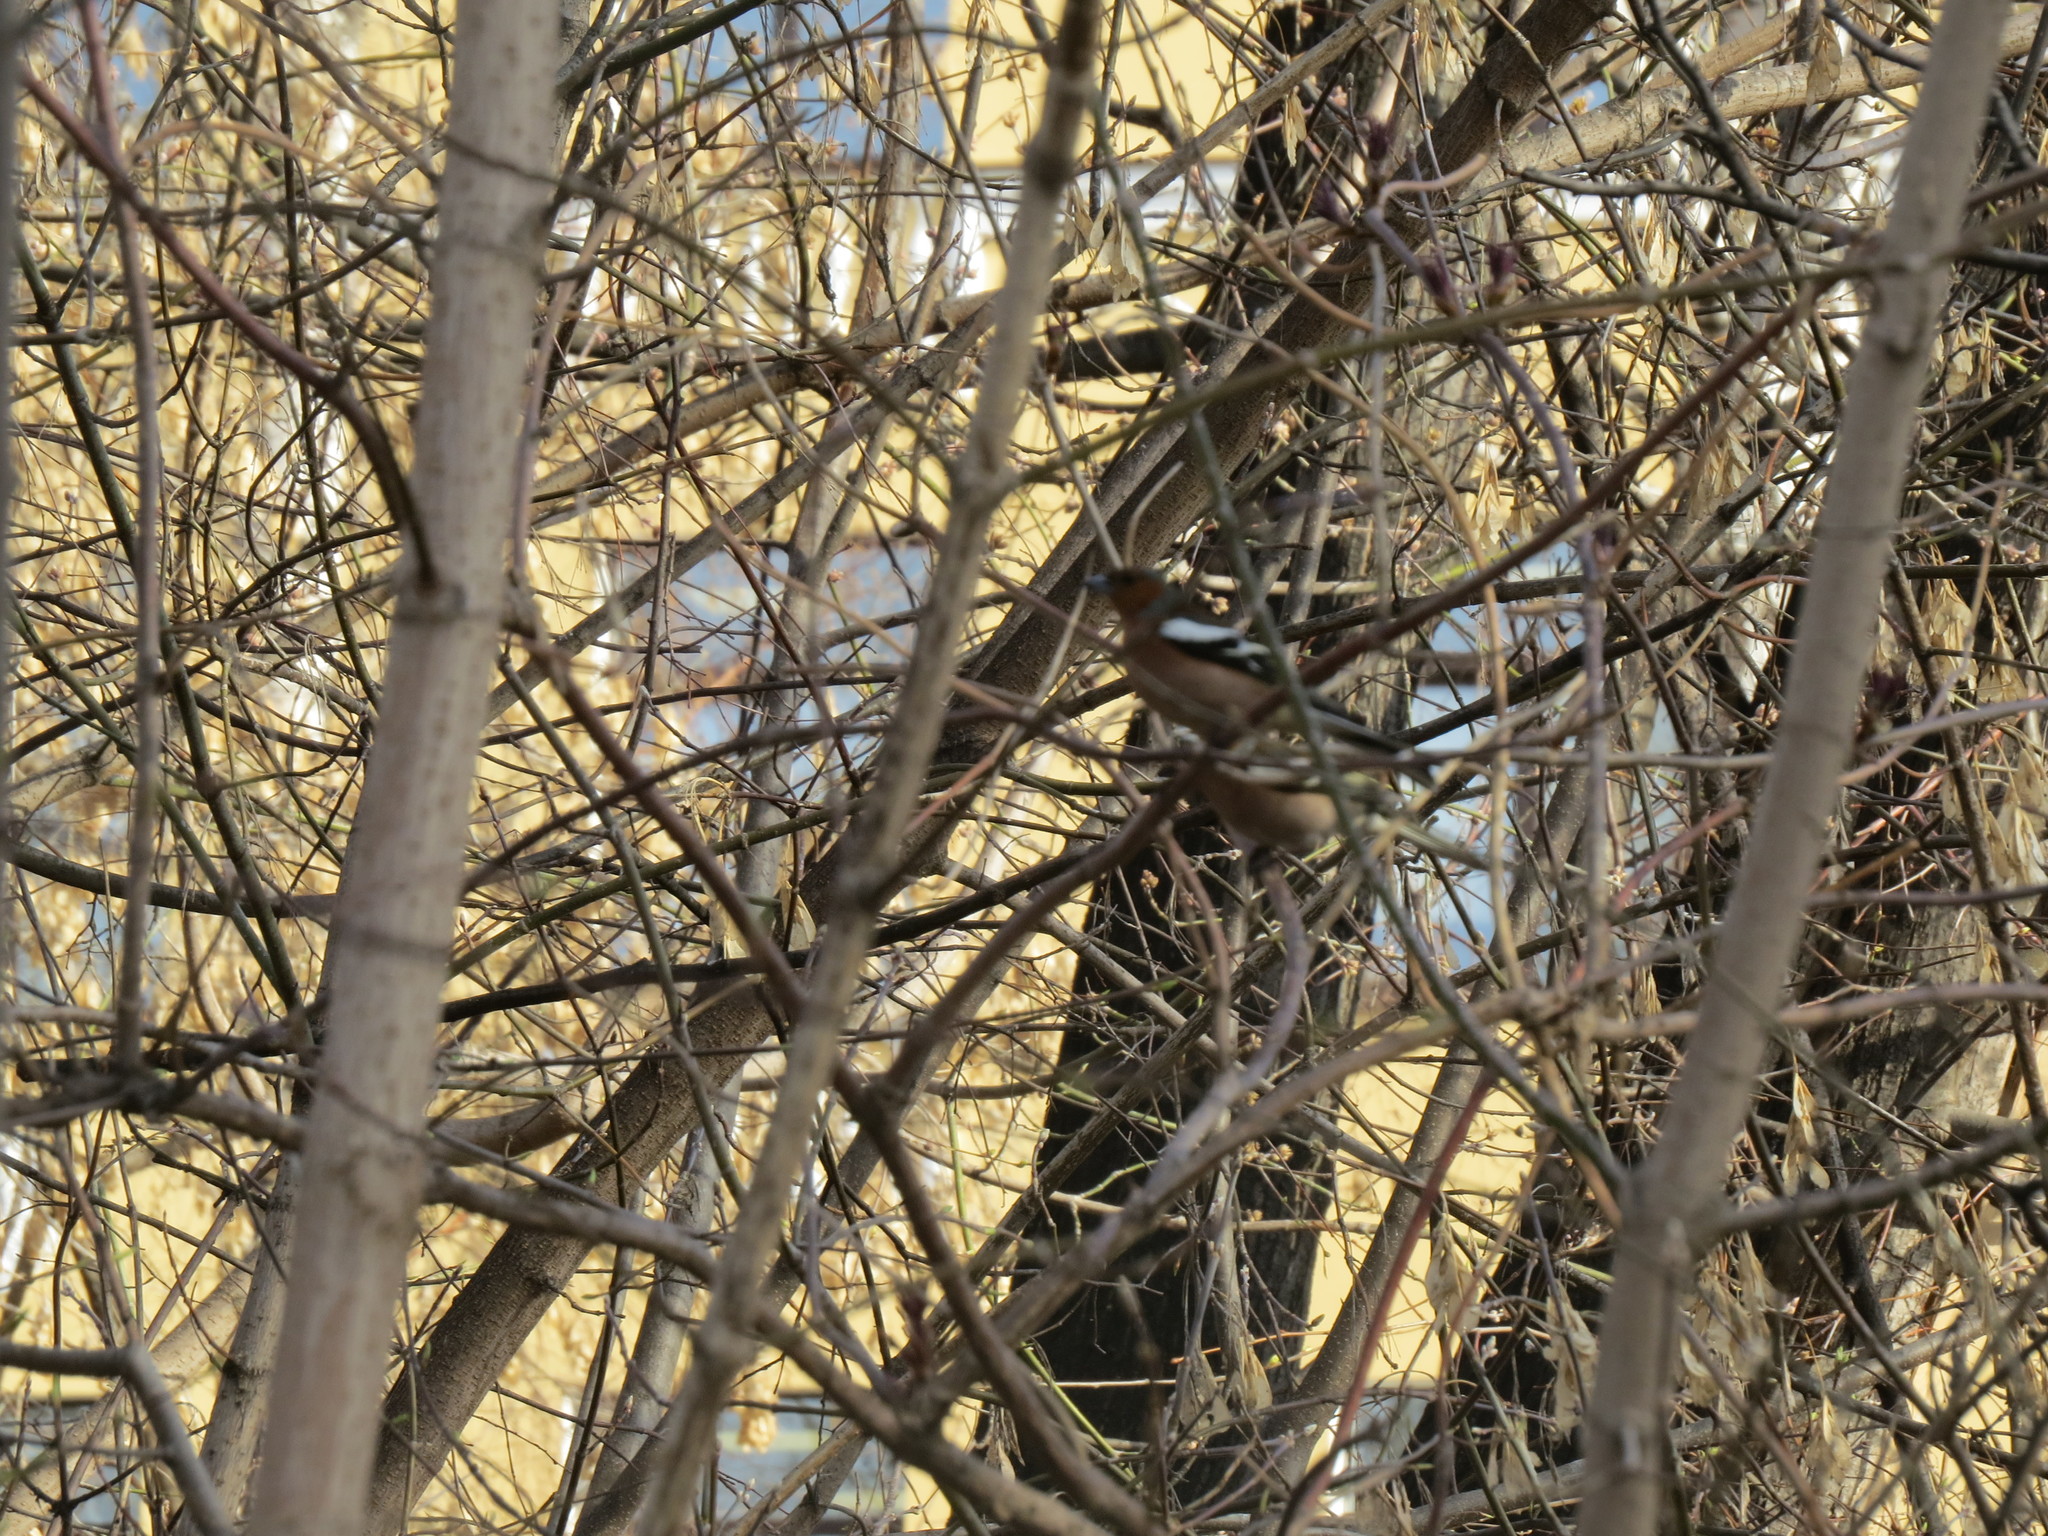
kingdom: Animalia
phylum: Chordata
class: Aves
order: Passeriformes
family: Fringillidae
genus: Fringilla
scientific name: Fringilla coelebs
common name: Common chaffinch
